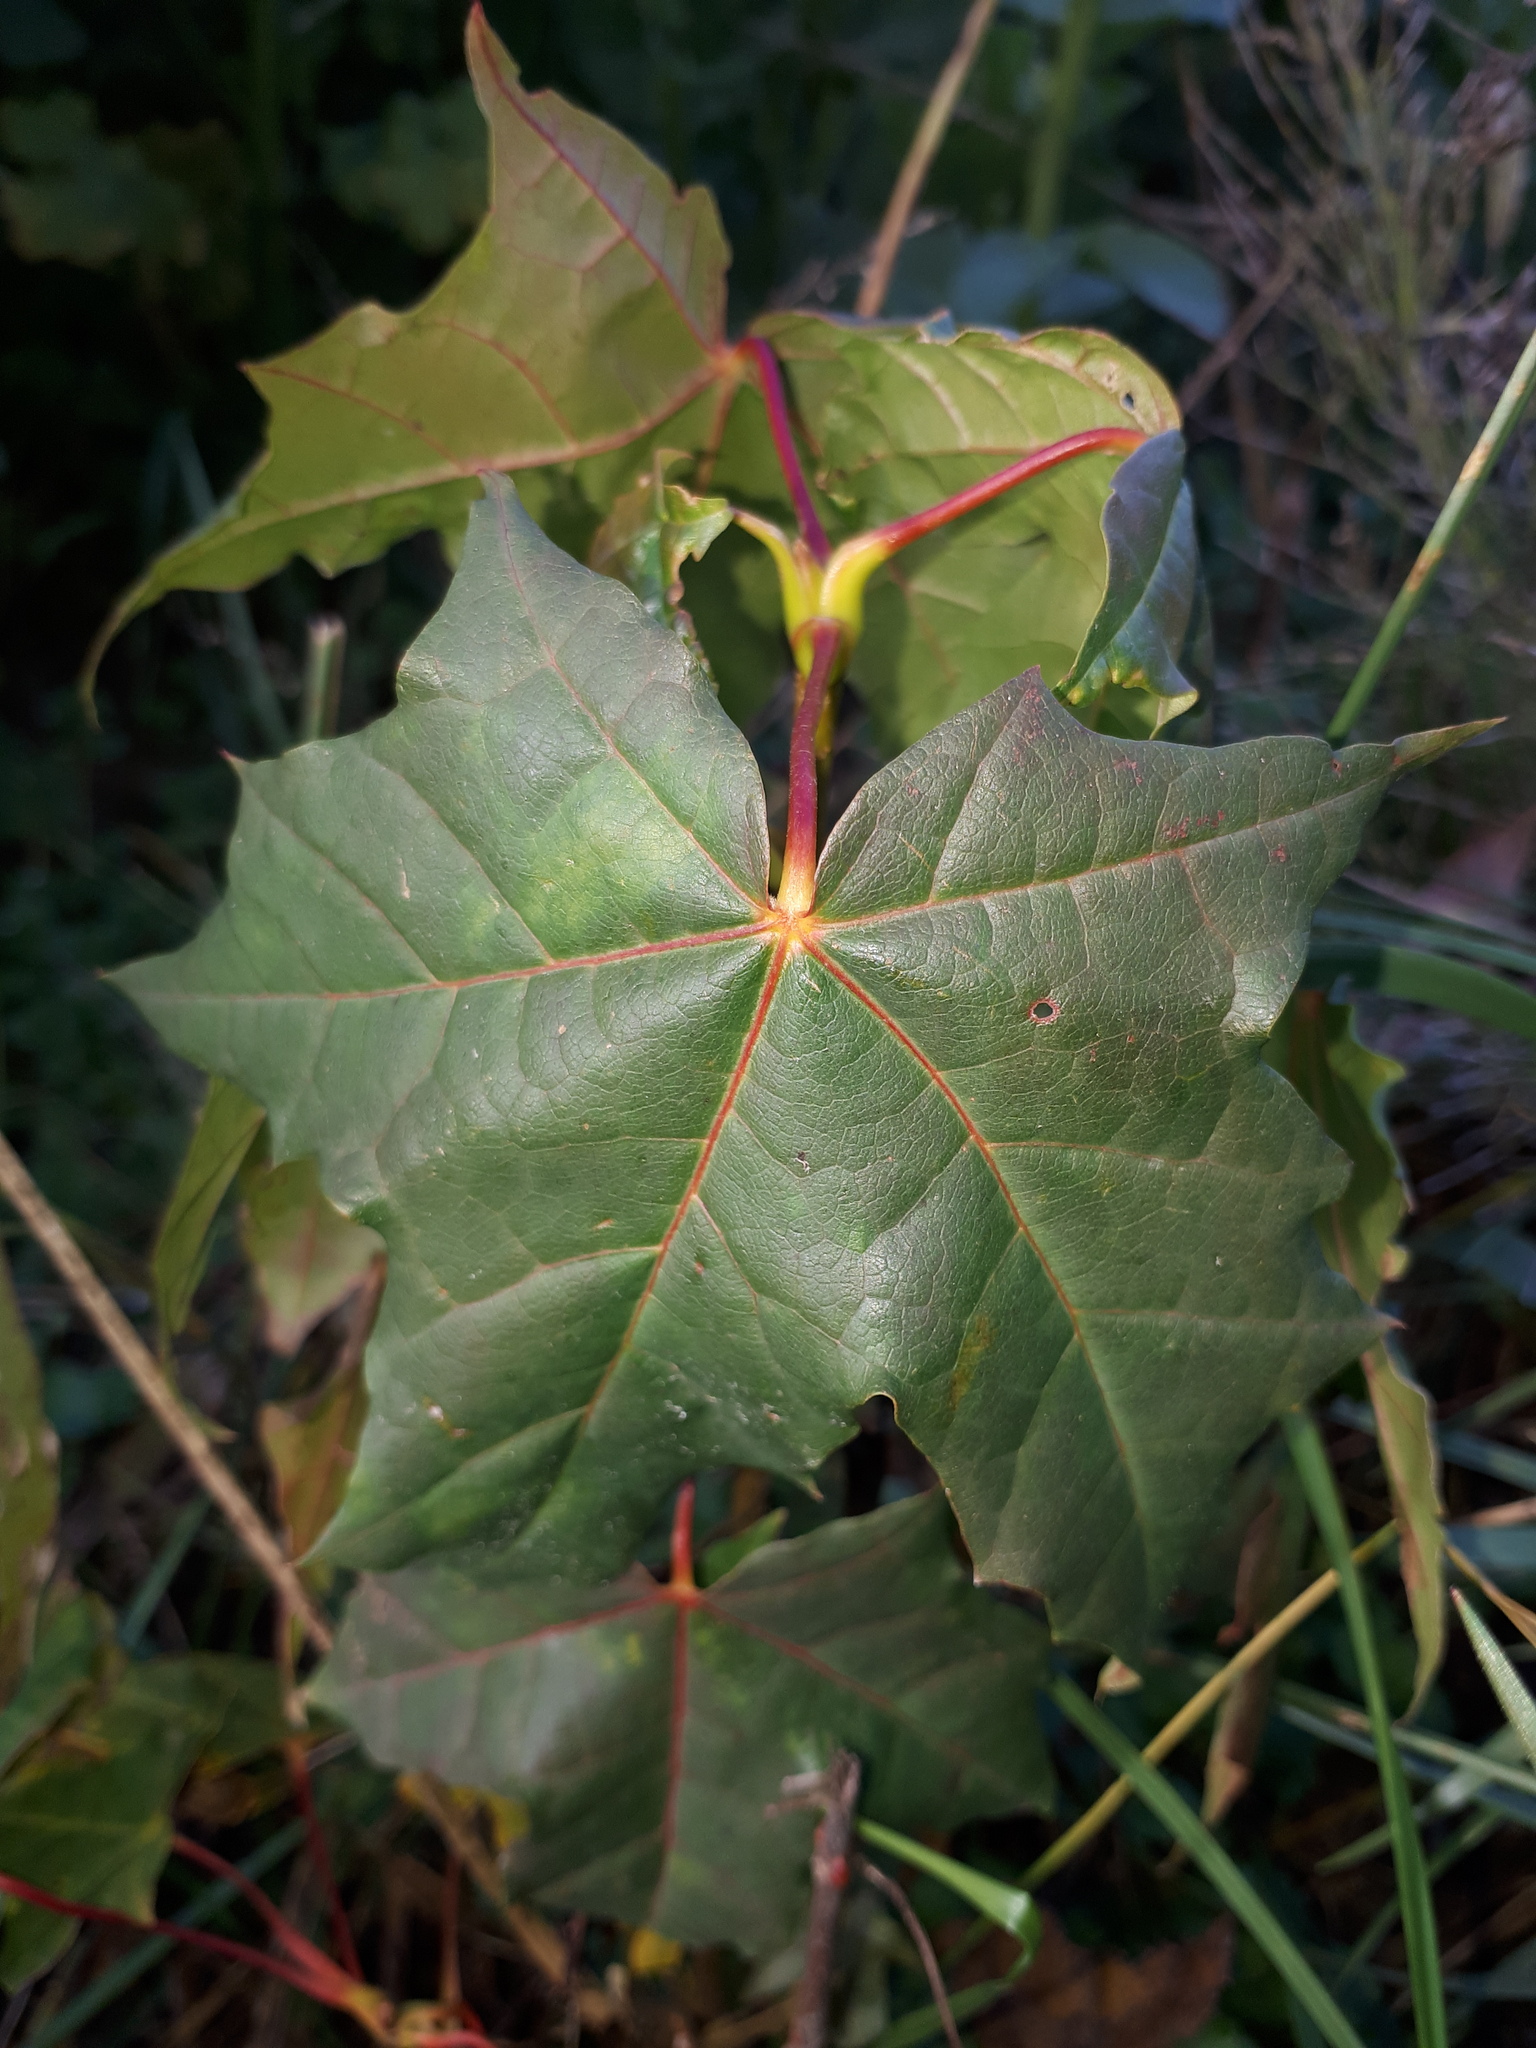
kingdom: Plantae
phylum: Tracheophyta
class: Magnoliopsida
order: Sapindales
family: Sapindaceae
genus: Acer
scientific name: Acer platanoides
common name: Norway maple
